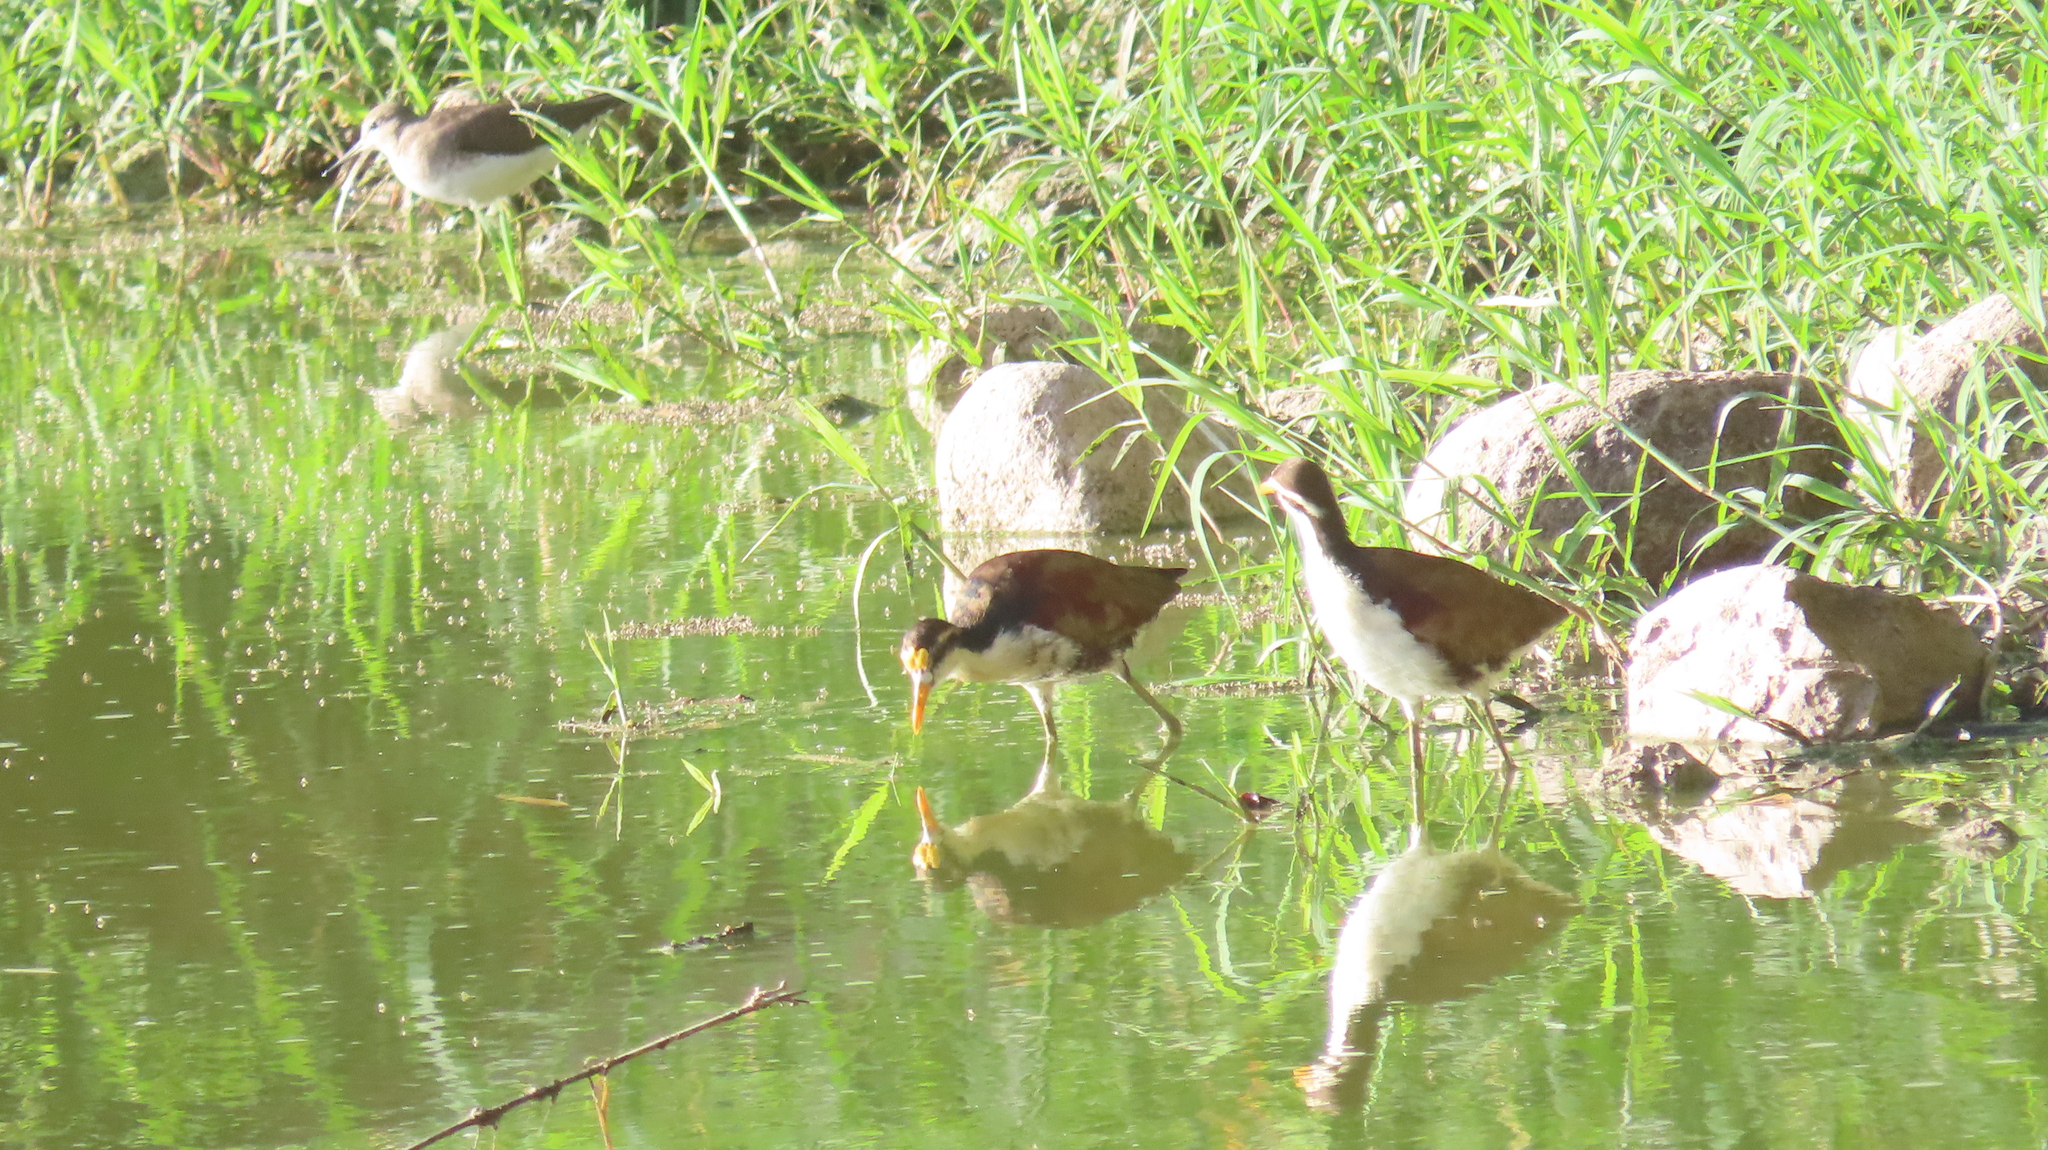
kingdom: Animalia
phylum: Chordata
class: Aves
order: Charadriiformes
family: Jacanidae
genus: Jacana
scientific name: Jacana spinosa
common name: Northern jacana
